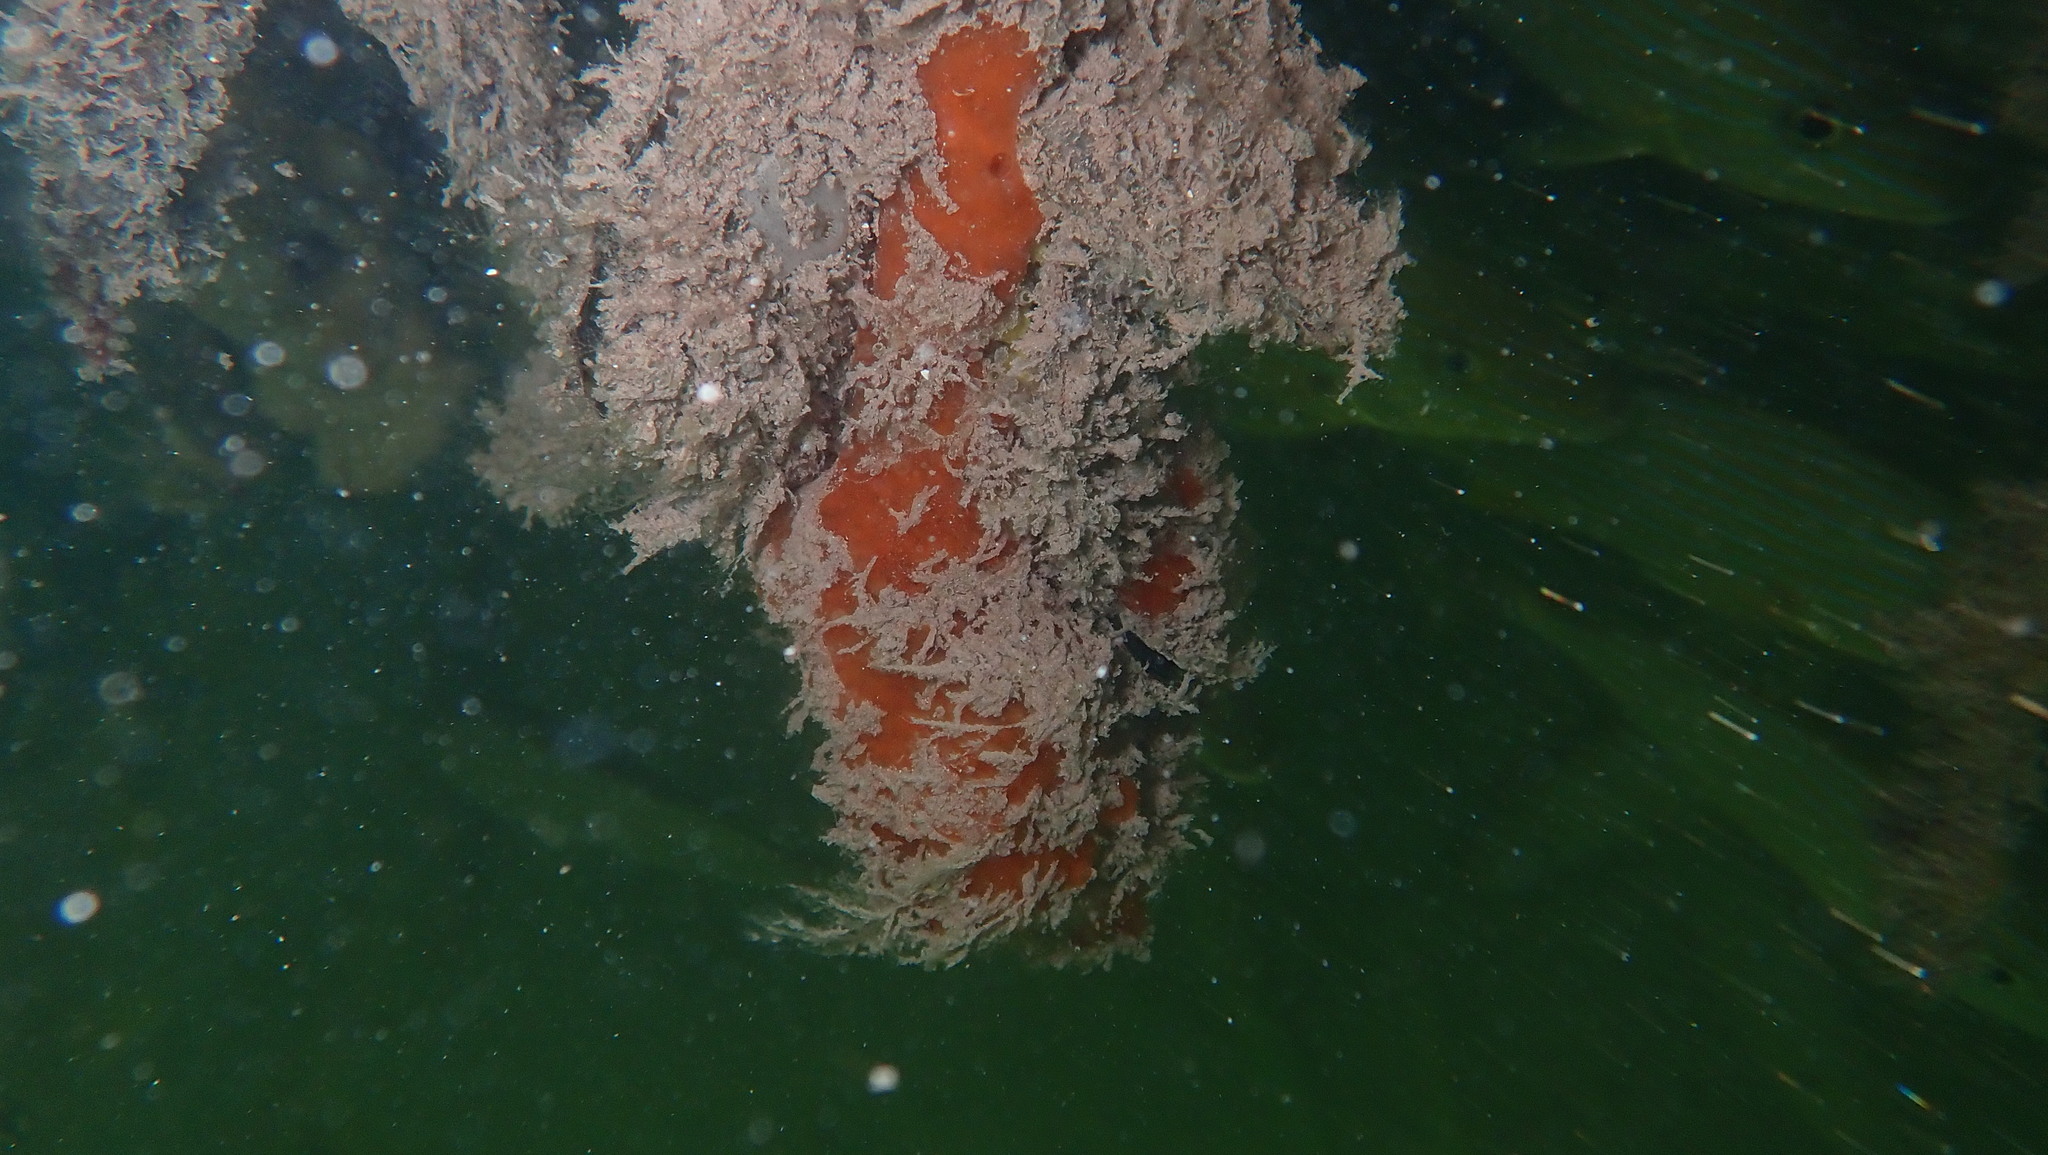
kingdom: Animalia
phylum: Porifera
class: Demospongiae
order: Poecilosclerida
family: Tedaniidae
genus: Tedania
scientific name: Tedania ignis
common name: Sponge
